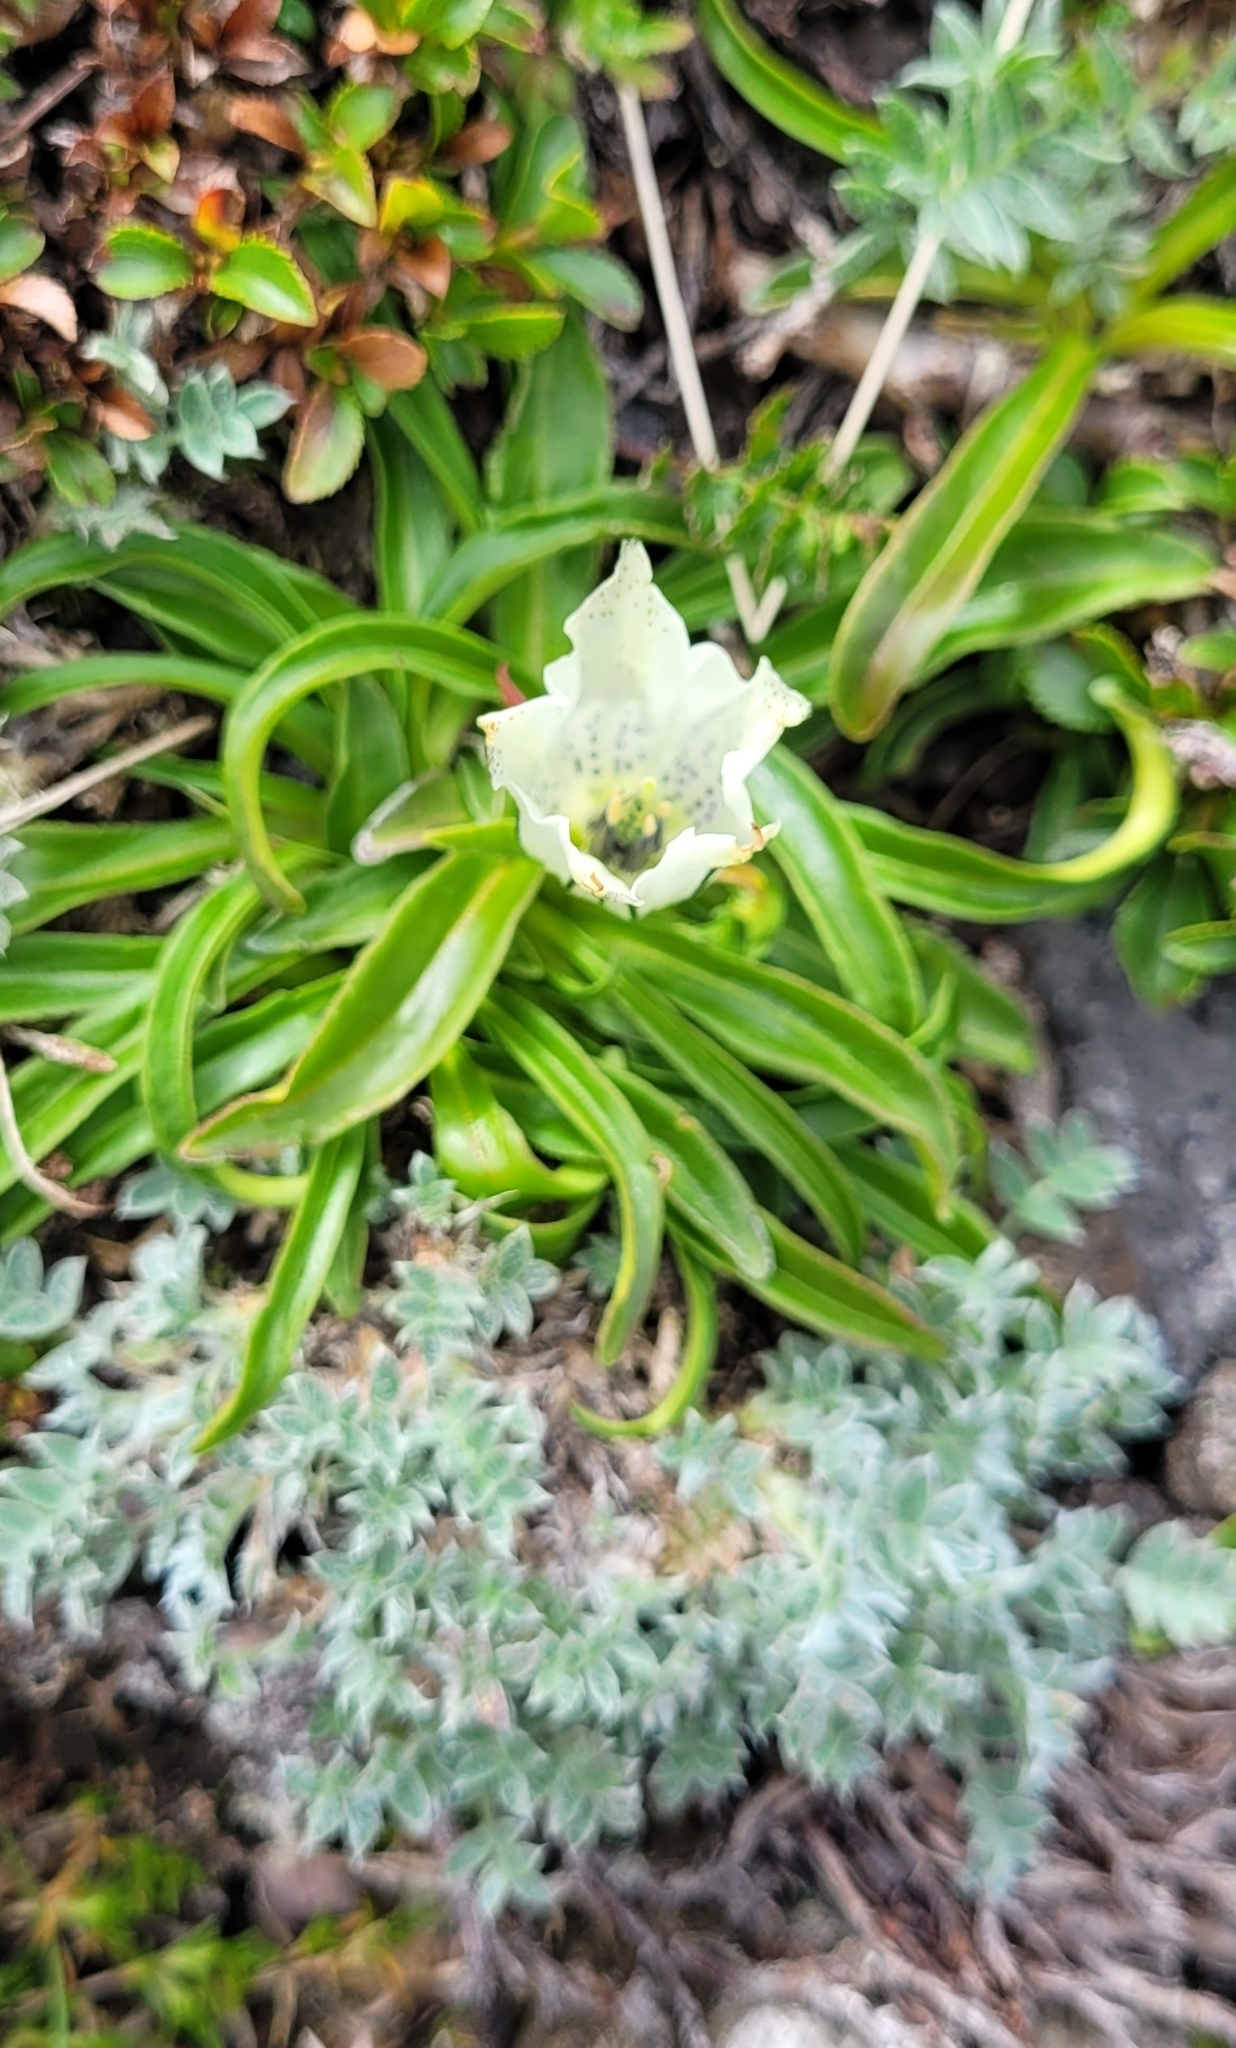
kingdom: Plantae
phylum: Tracheophyta
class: Magnoliopsida
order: Gentianales
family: Gentianaceae
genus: Gentiana
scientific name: Gentiana algida
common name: Arctic gentian
